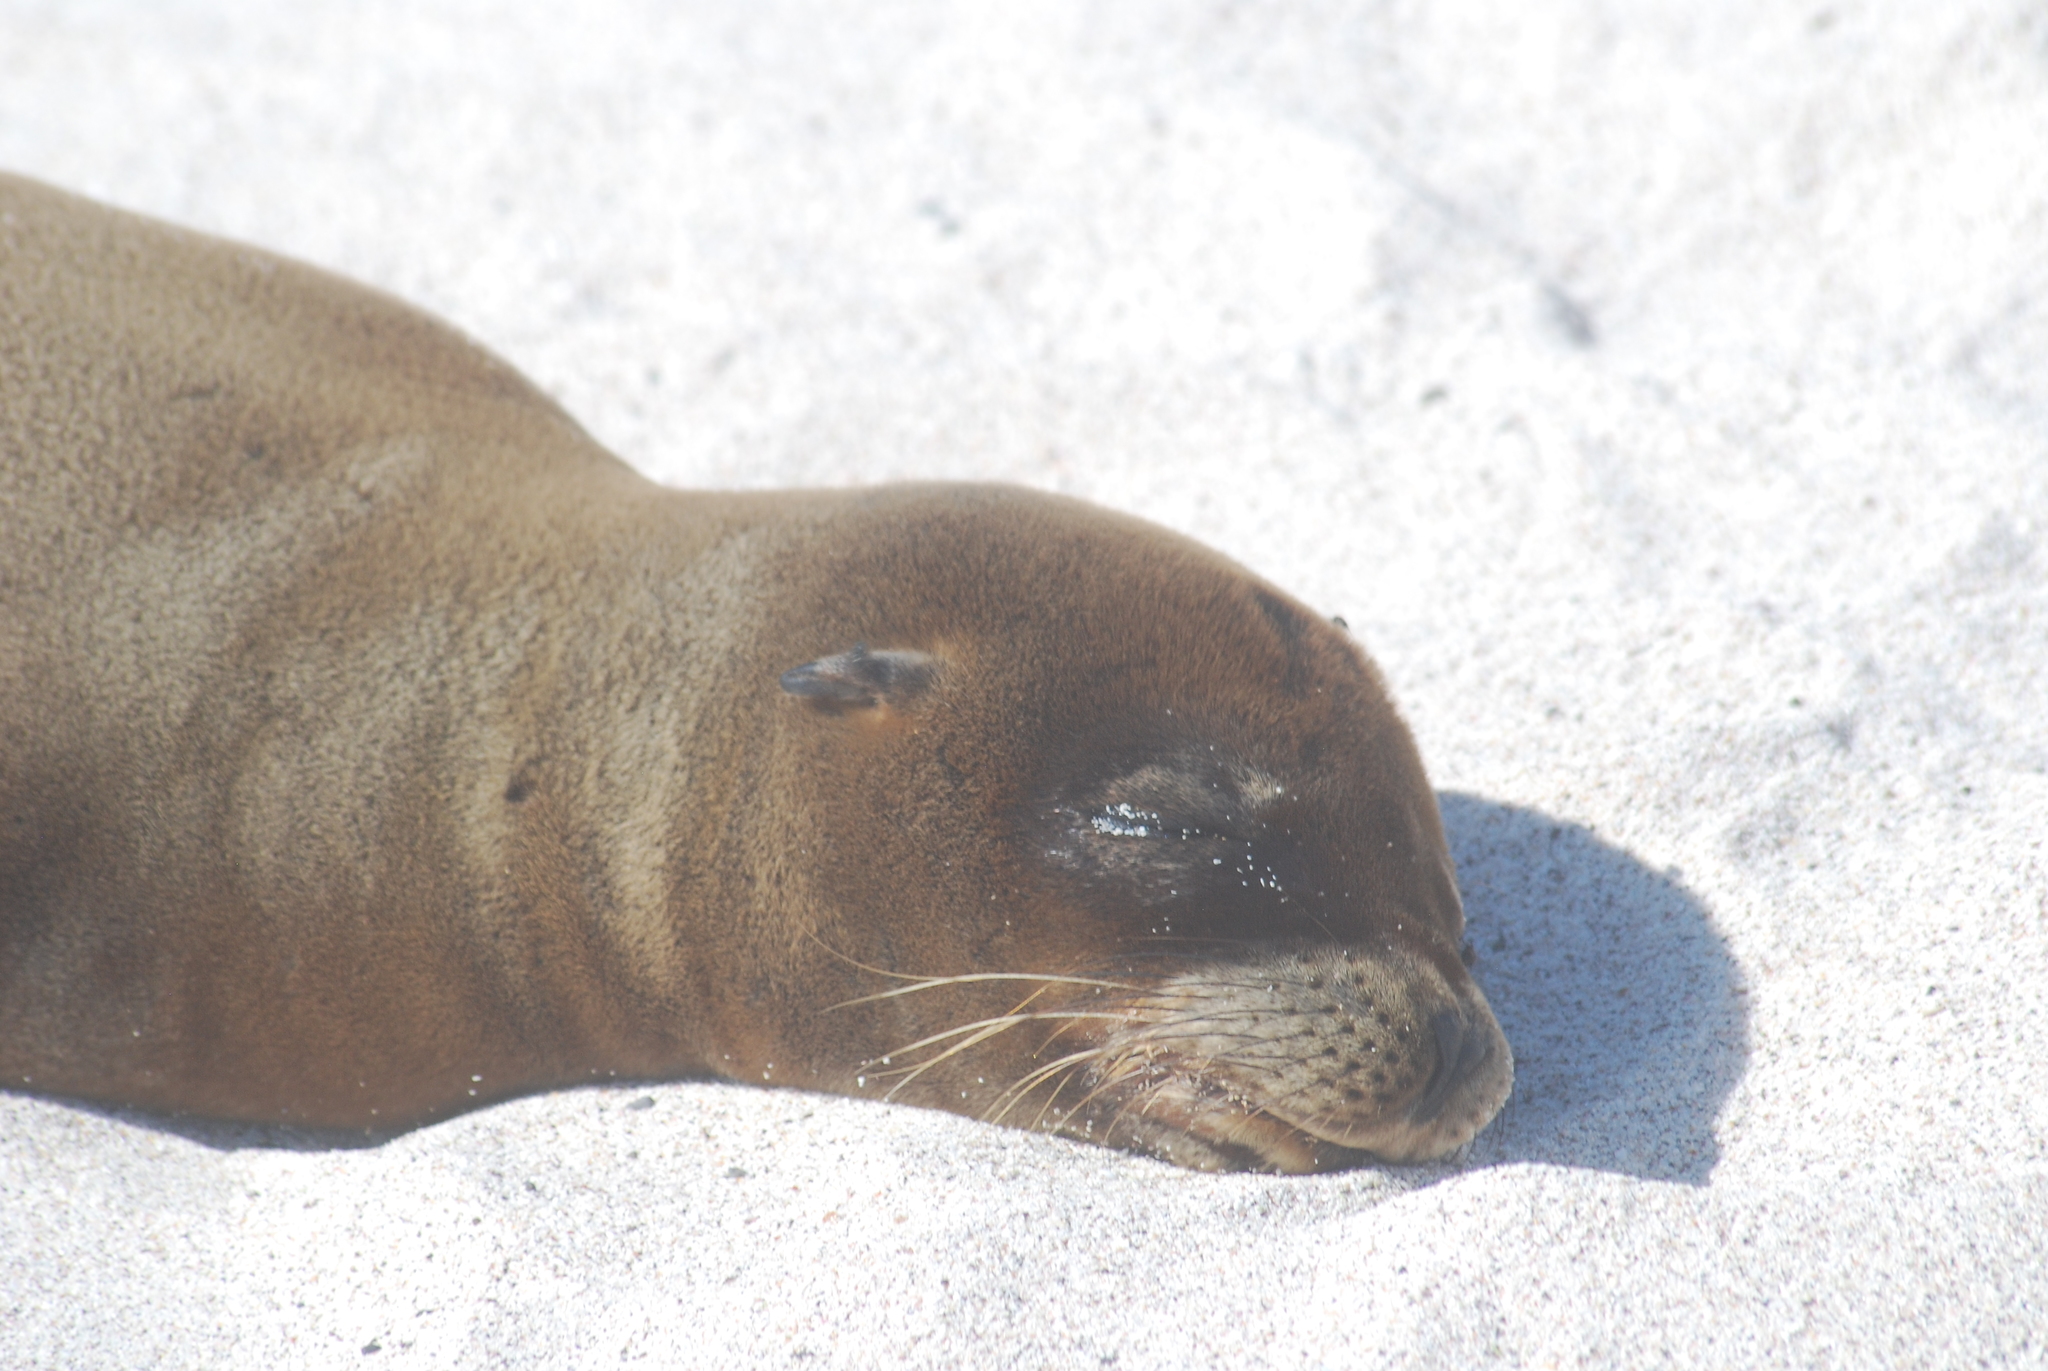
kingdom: Animalia
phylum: Chordata
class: Mammalia
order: Carnivora
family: Otariidae
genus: Zalophus
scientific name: Zalophus wollebaeki
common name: Galapagos sea lion
